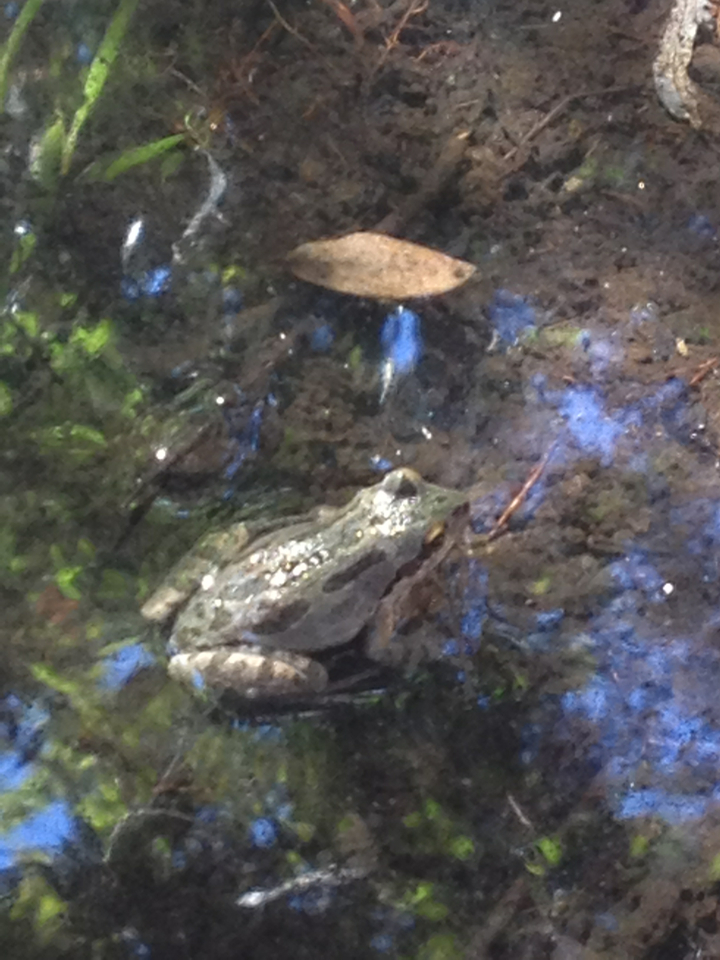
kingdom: Animalia
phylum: Chordata
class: Amphibia
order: Anura
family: Hylidae
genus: Pseudacris
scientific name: Pseudacris regilla
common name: Pacific chorus frog
